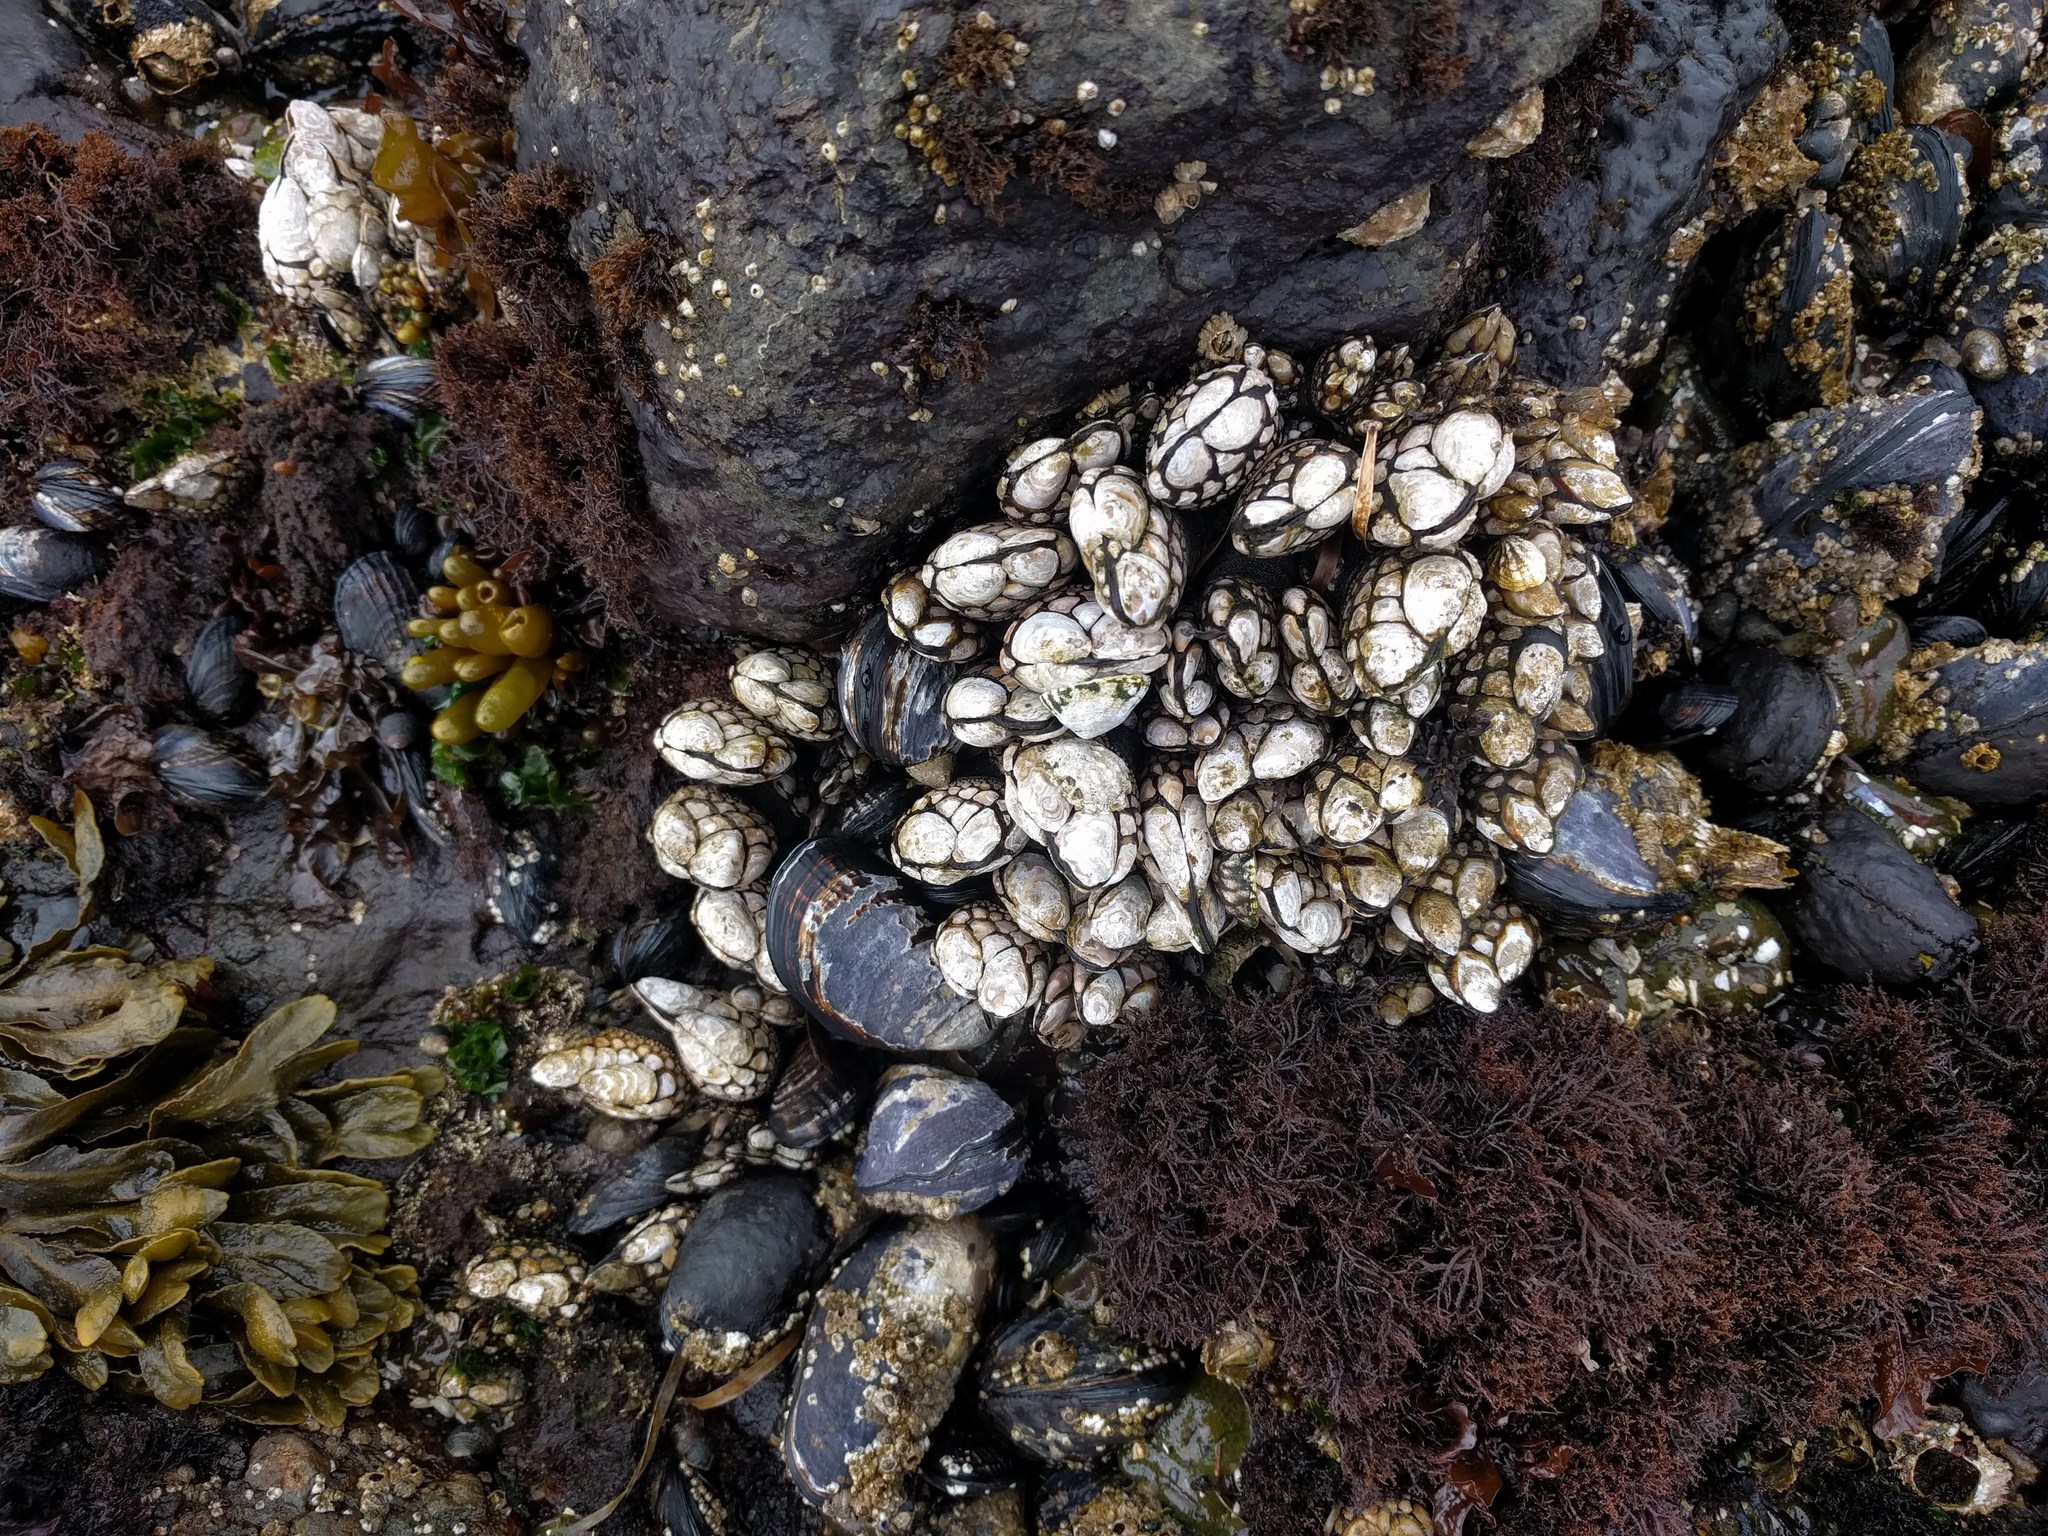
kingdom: Animalia
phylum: Mollusca
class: Bivalvia
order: Mytilida
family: Mytilidae
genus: Mytilus
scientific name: Mytilus californianus
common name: California mussel
